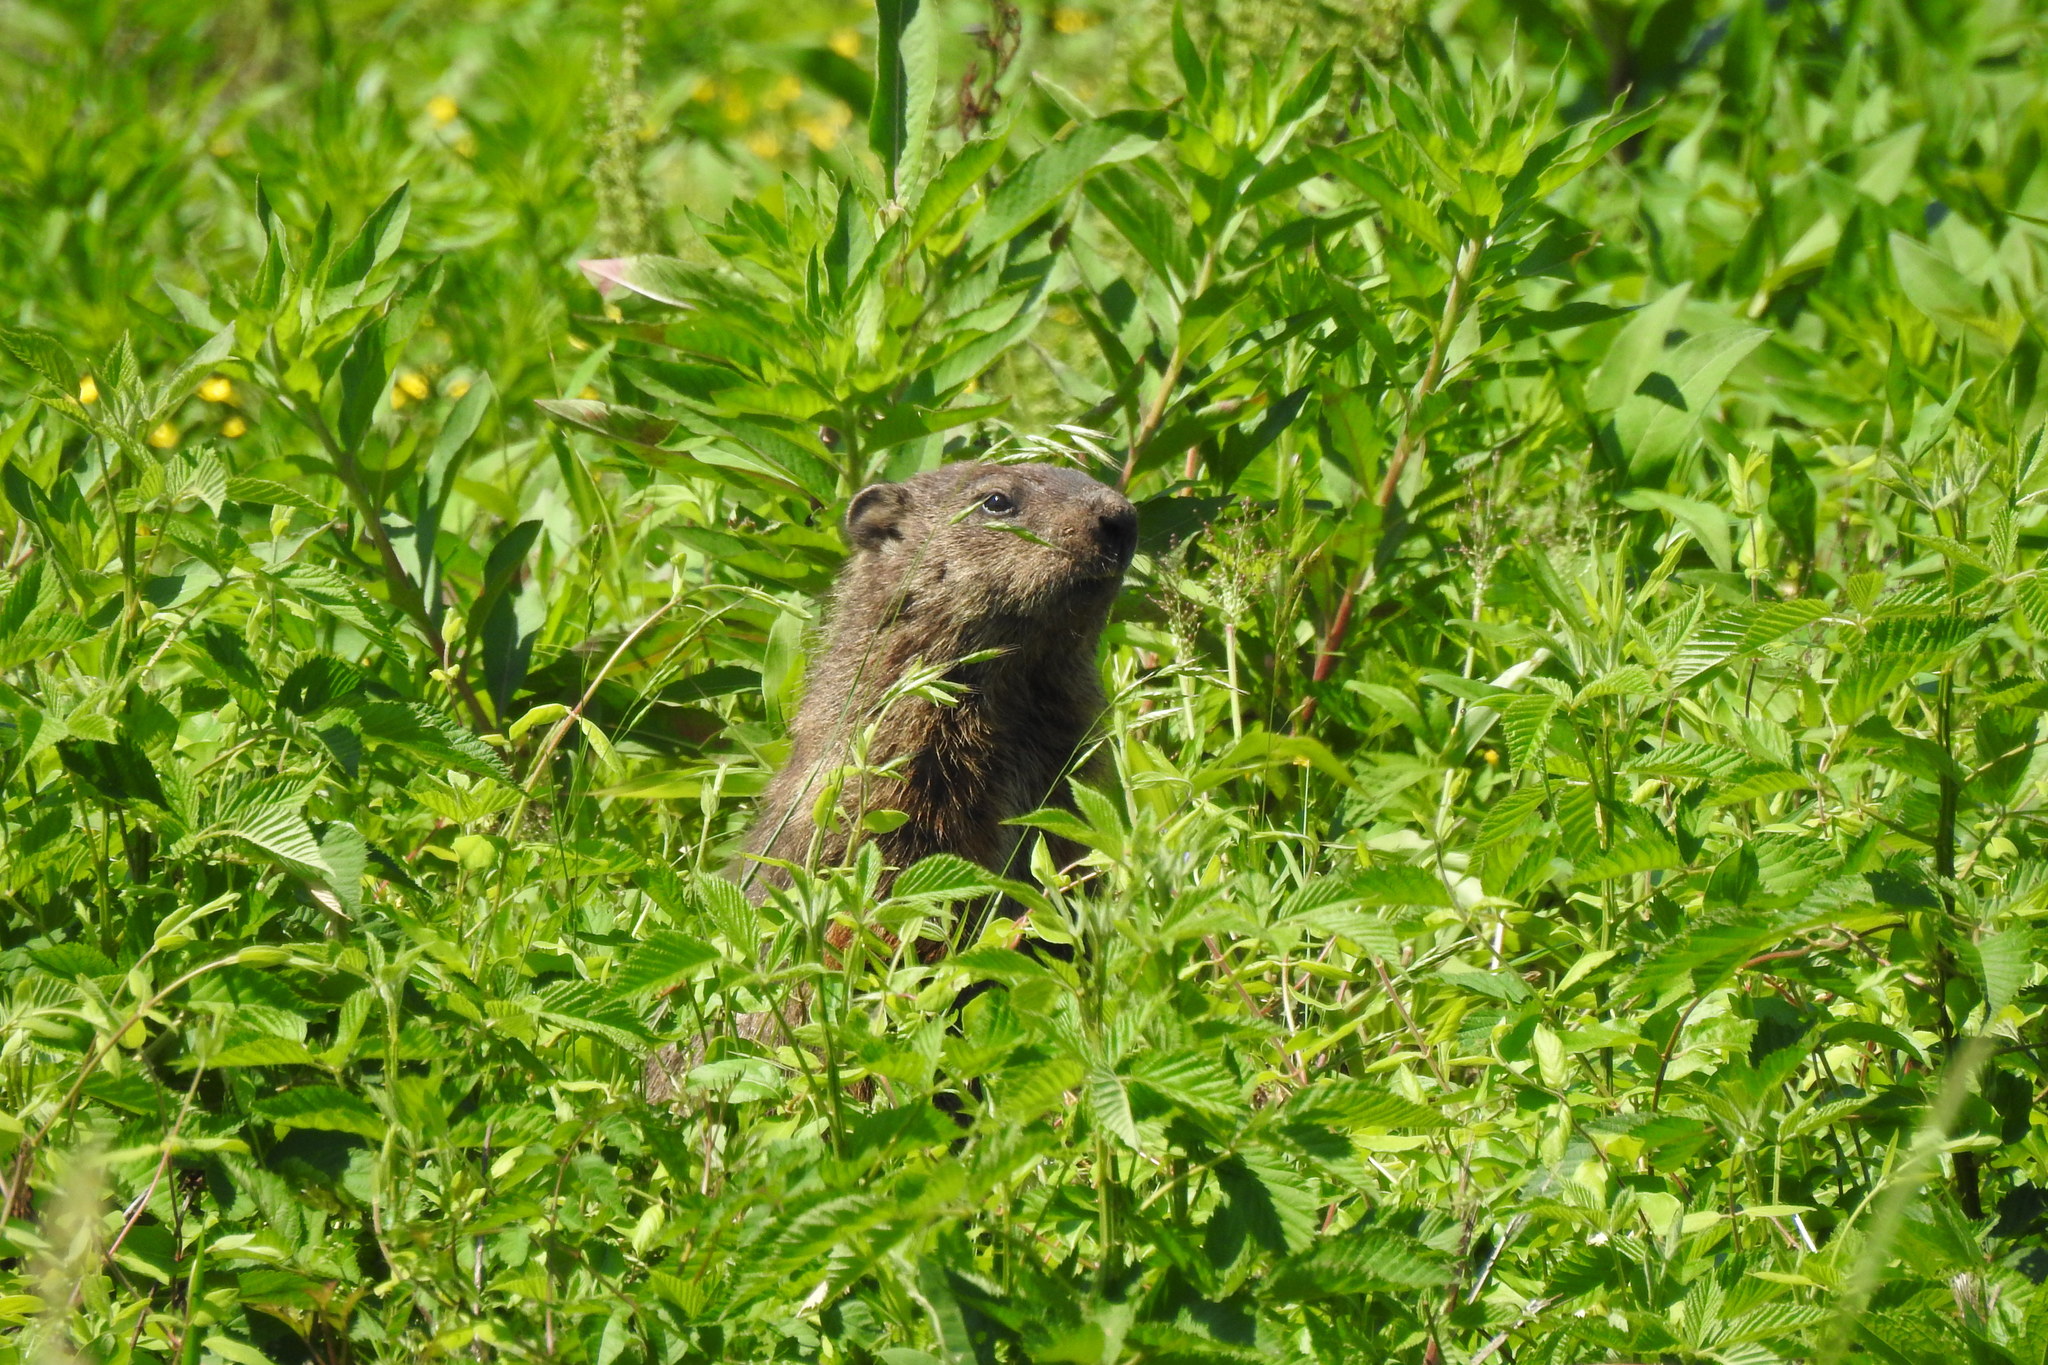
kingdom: Animalia
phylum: Chordata
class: Mammalia
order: Rodentia
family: Sciuridae
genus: Marmota
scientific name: Marmota monax
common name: Groundhog
